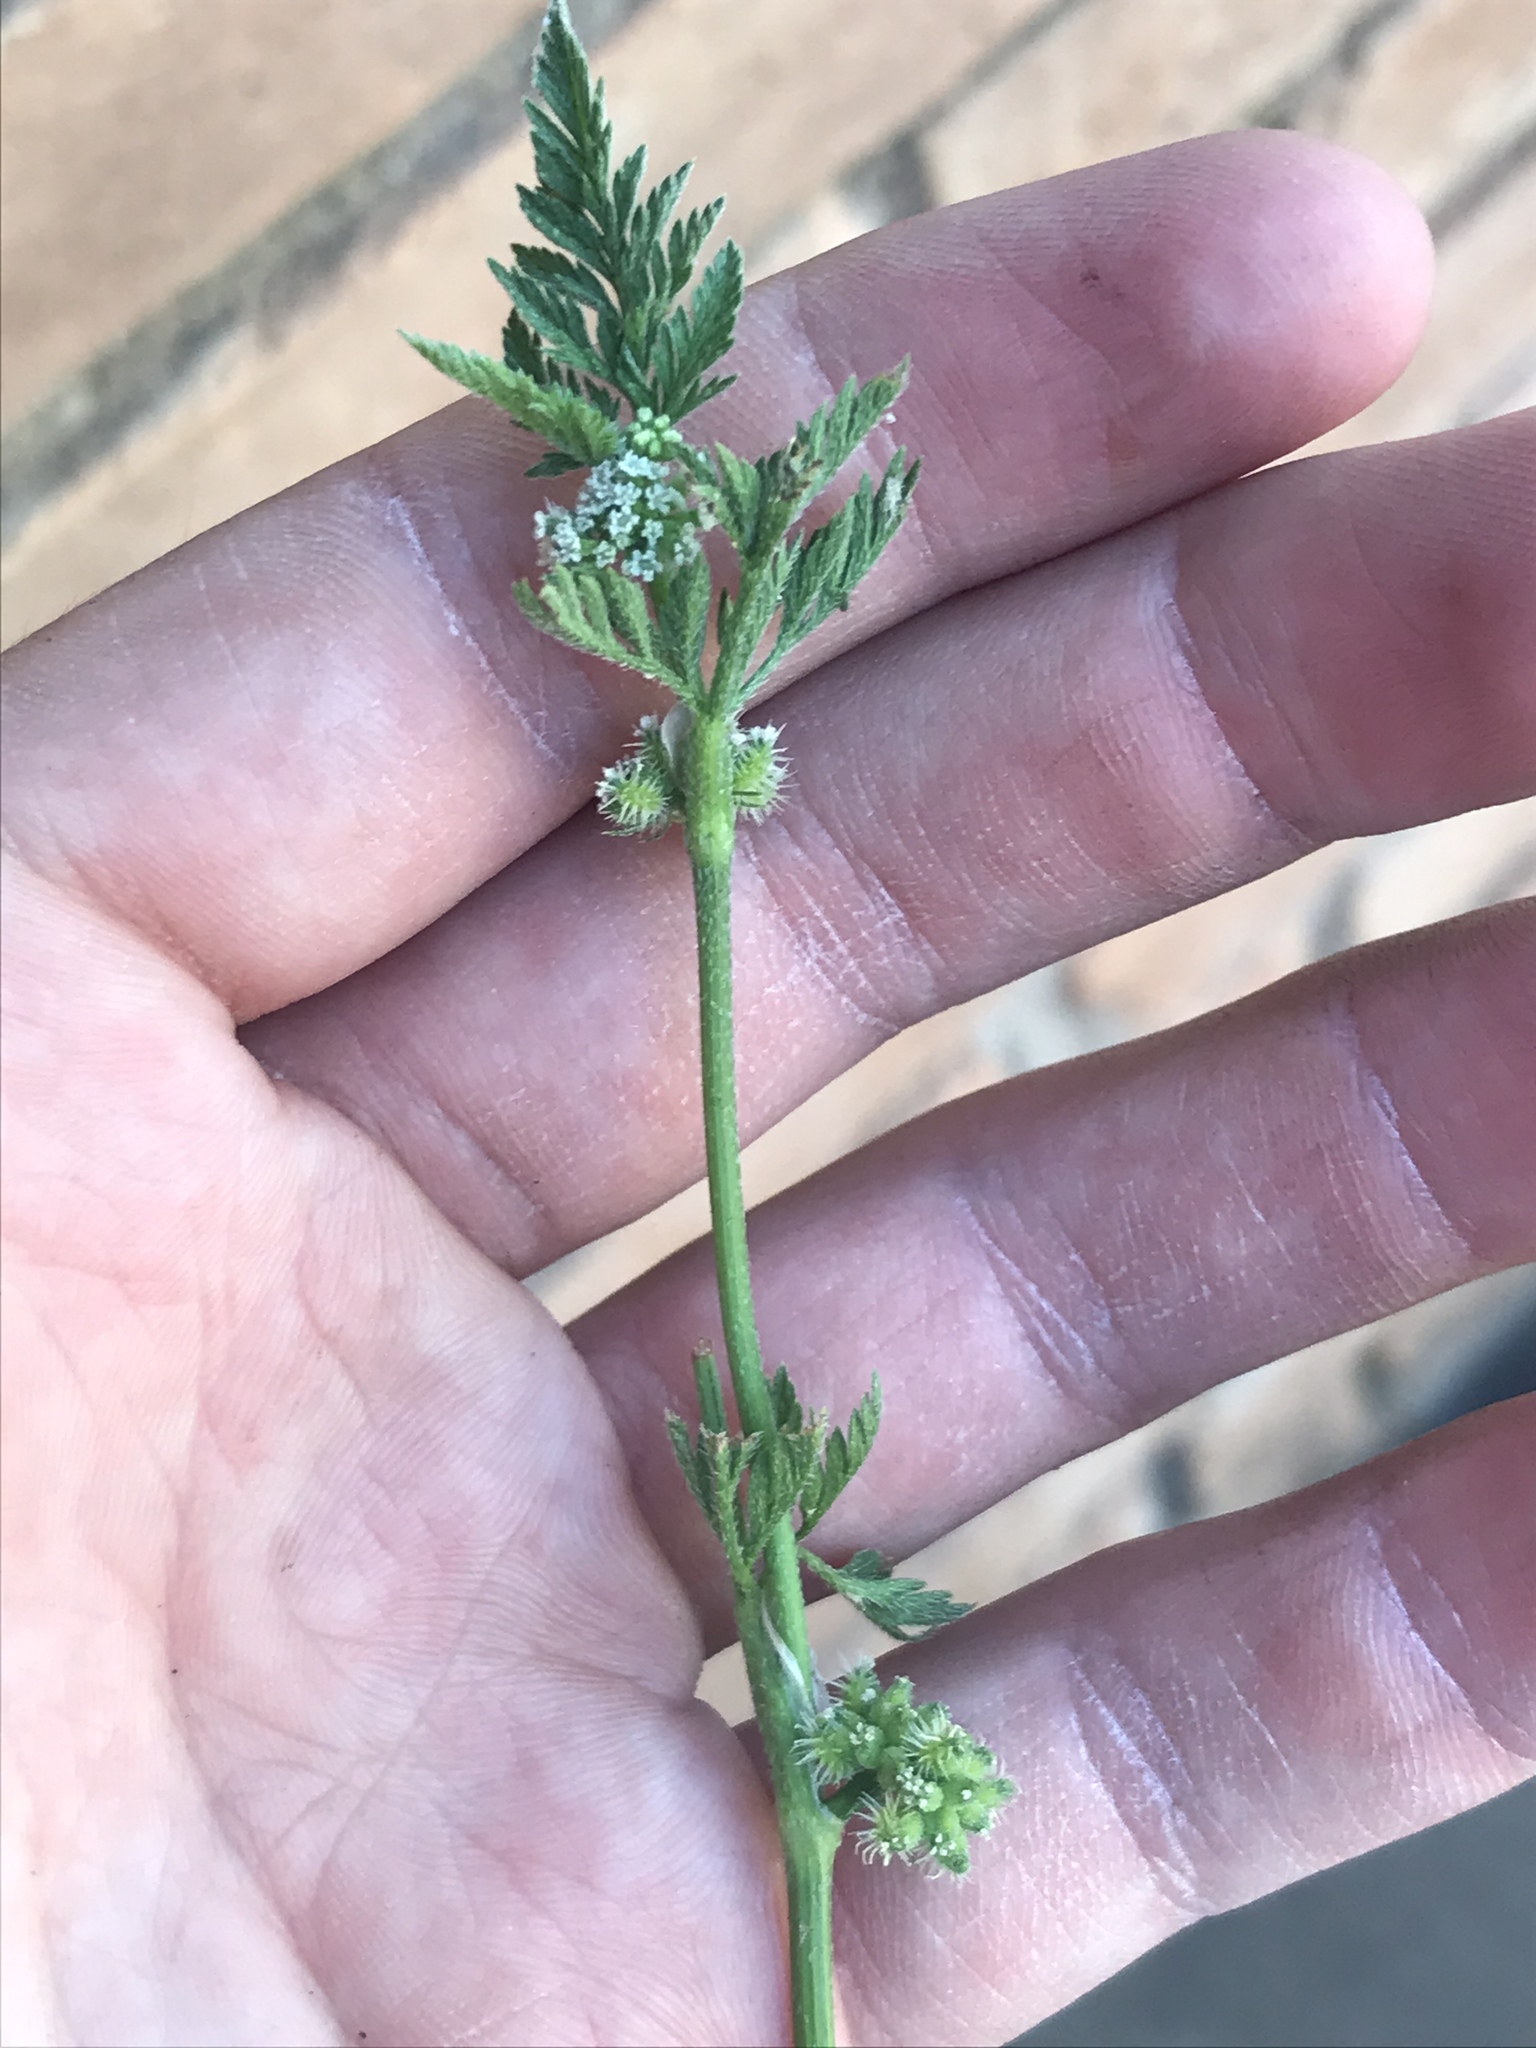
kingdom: Plantae
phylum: Tracheophyta
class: Magnoliopsida
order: Apiales
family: Apiaceae
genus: Torilis
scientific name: Torilis nodosa
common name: Knotted hedge-parsley
